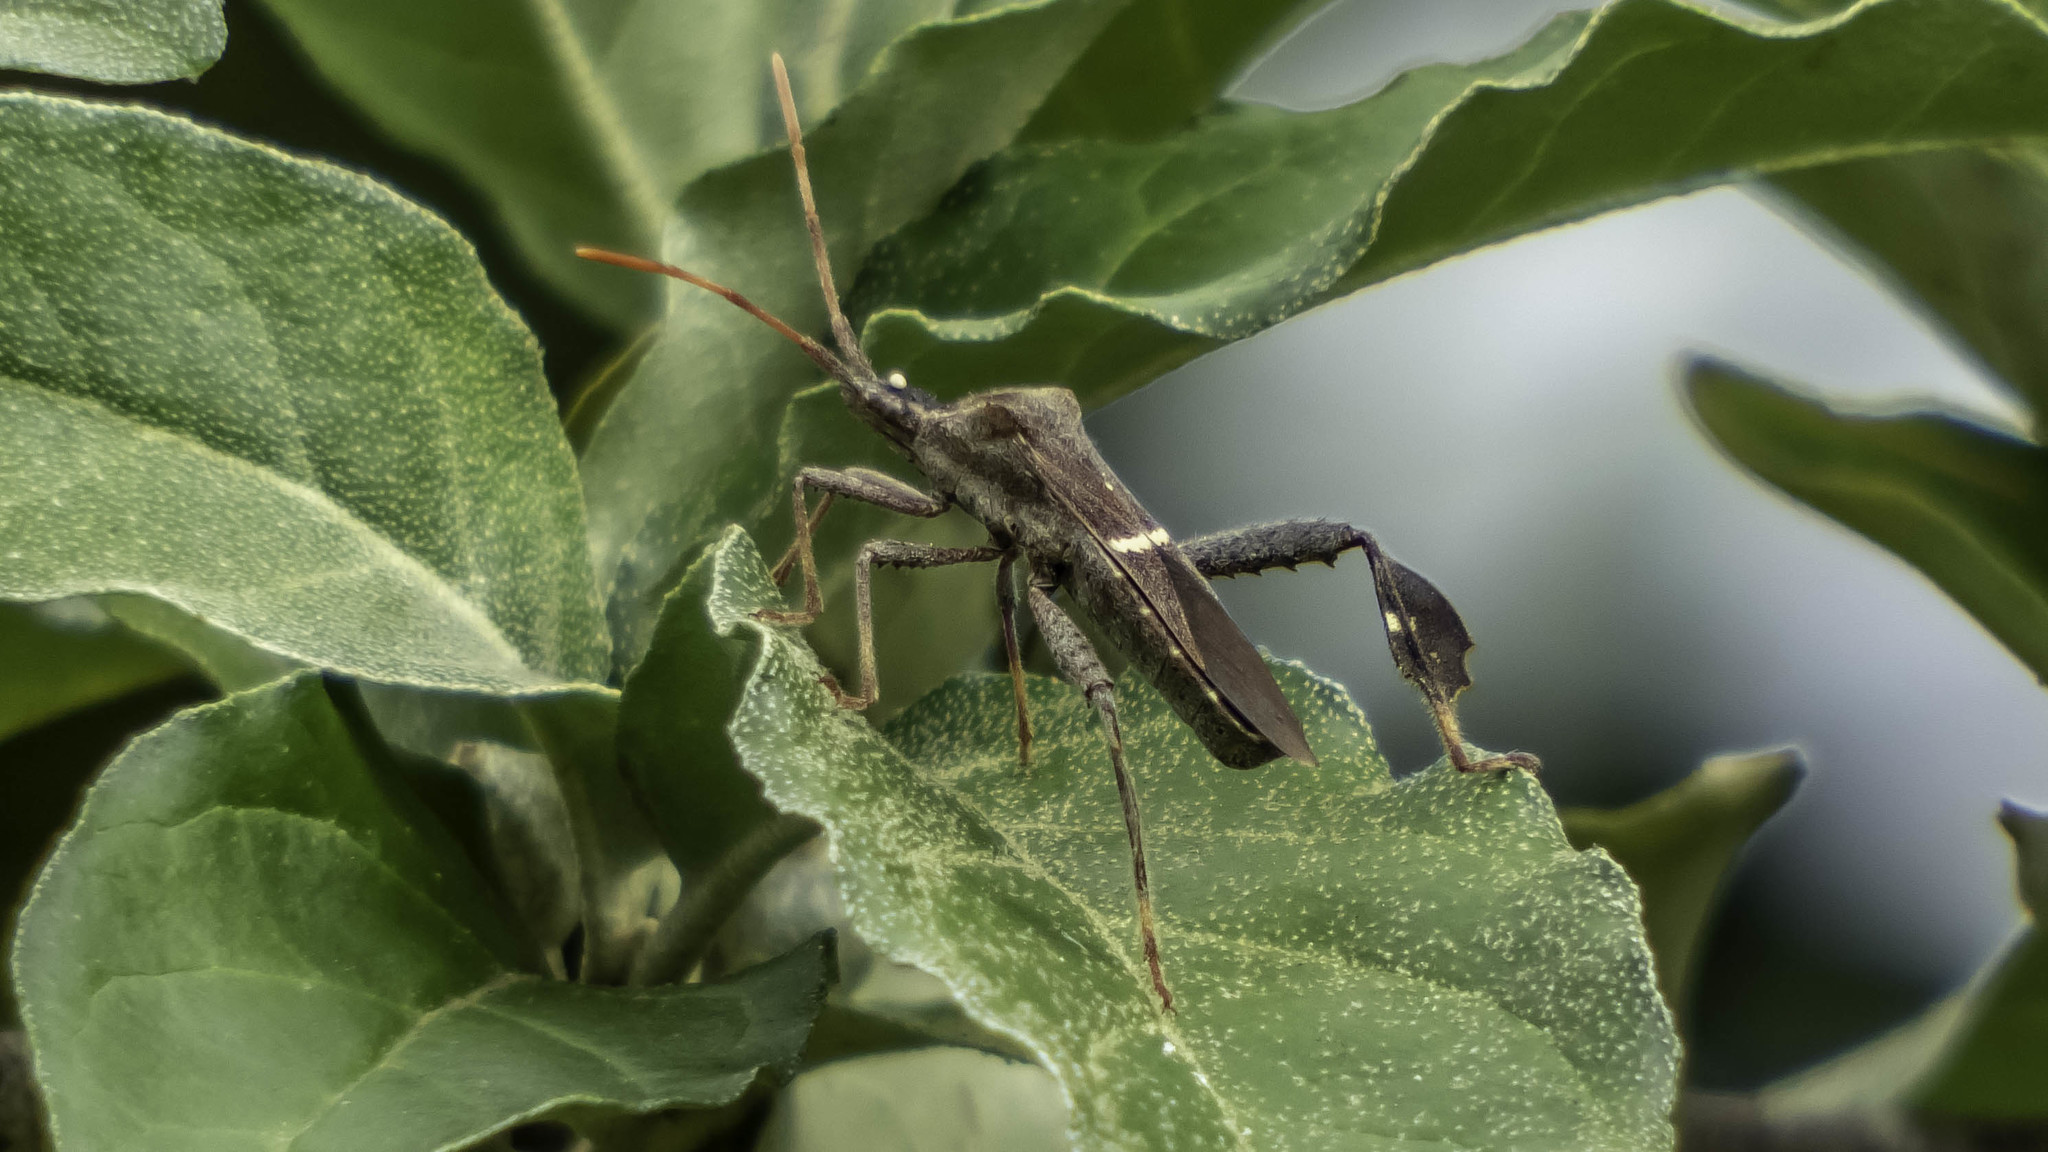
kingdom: Animalia
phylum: Arthropoda
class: Insecta
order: Hemiptera
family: Coreidae
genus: Leptoglossus
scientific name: Leptoglossus phyllopus
